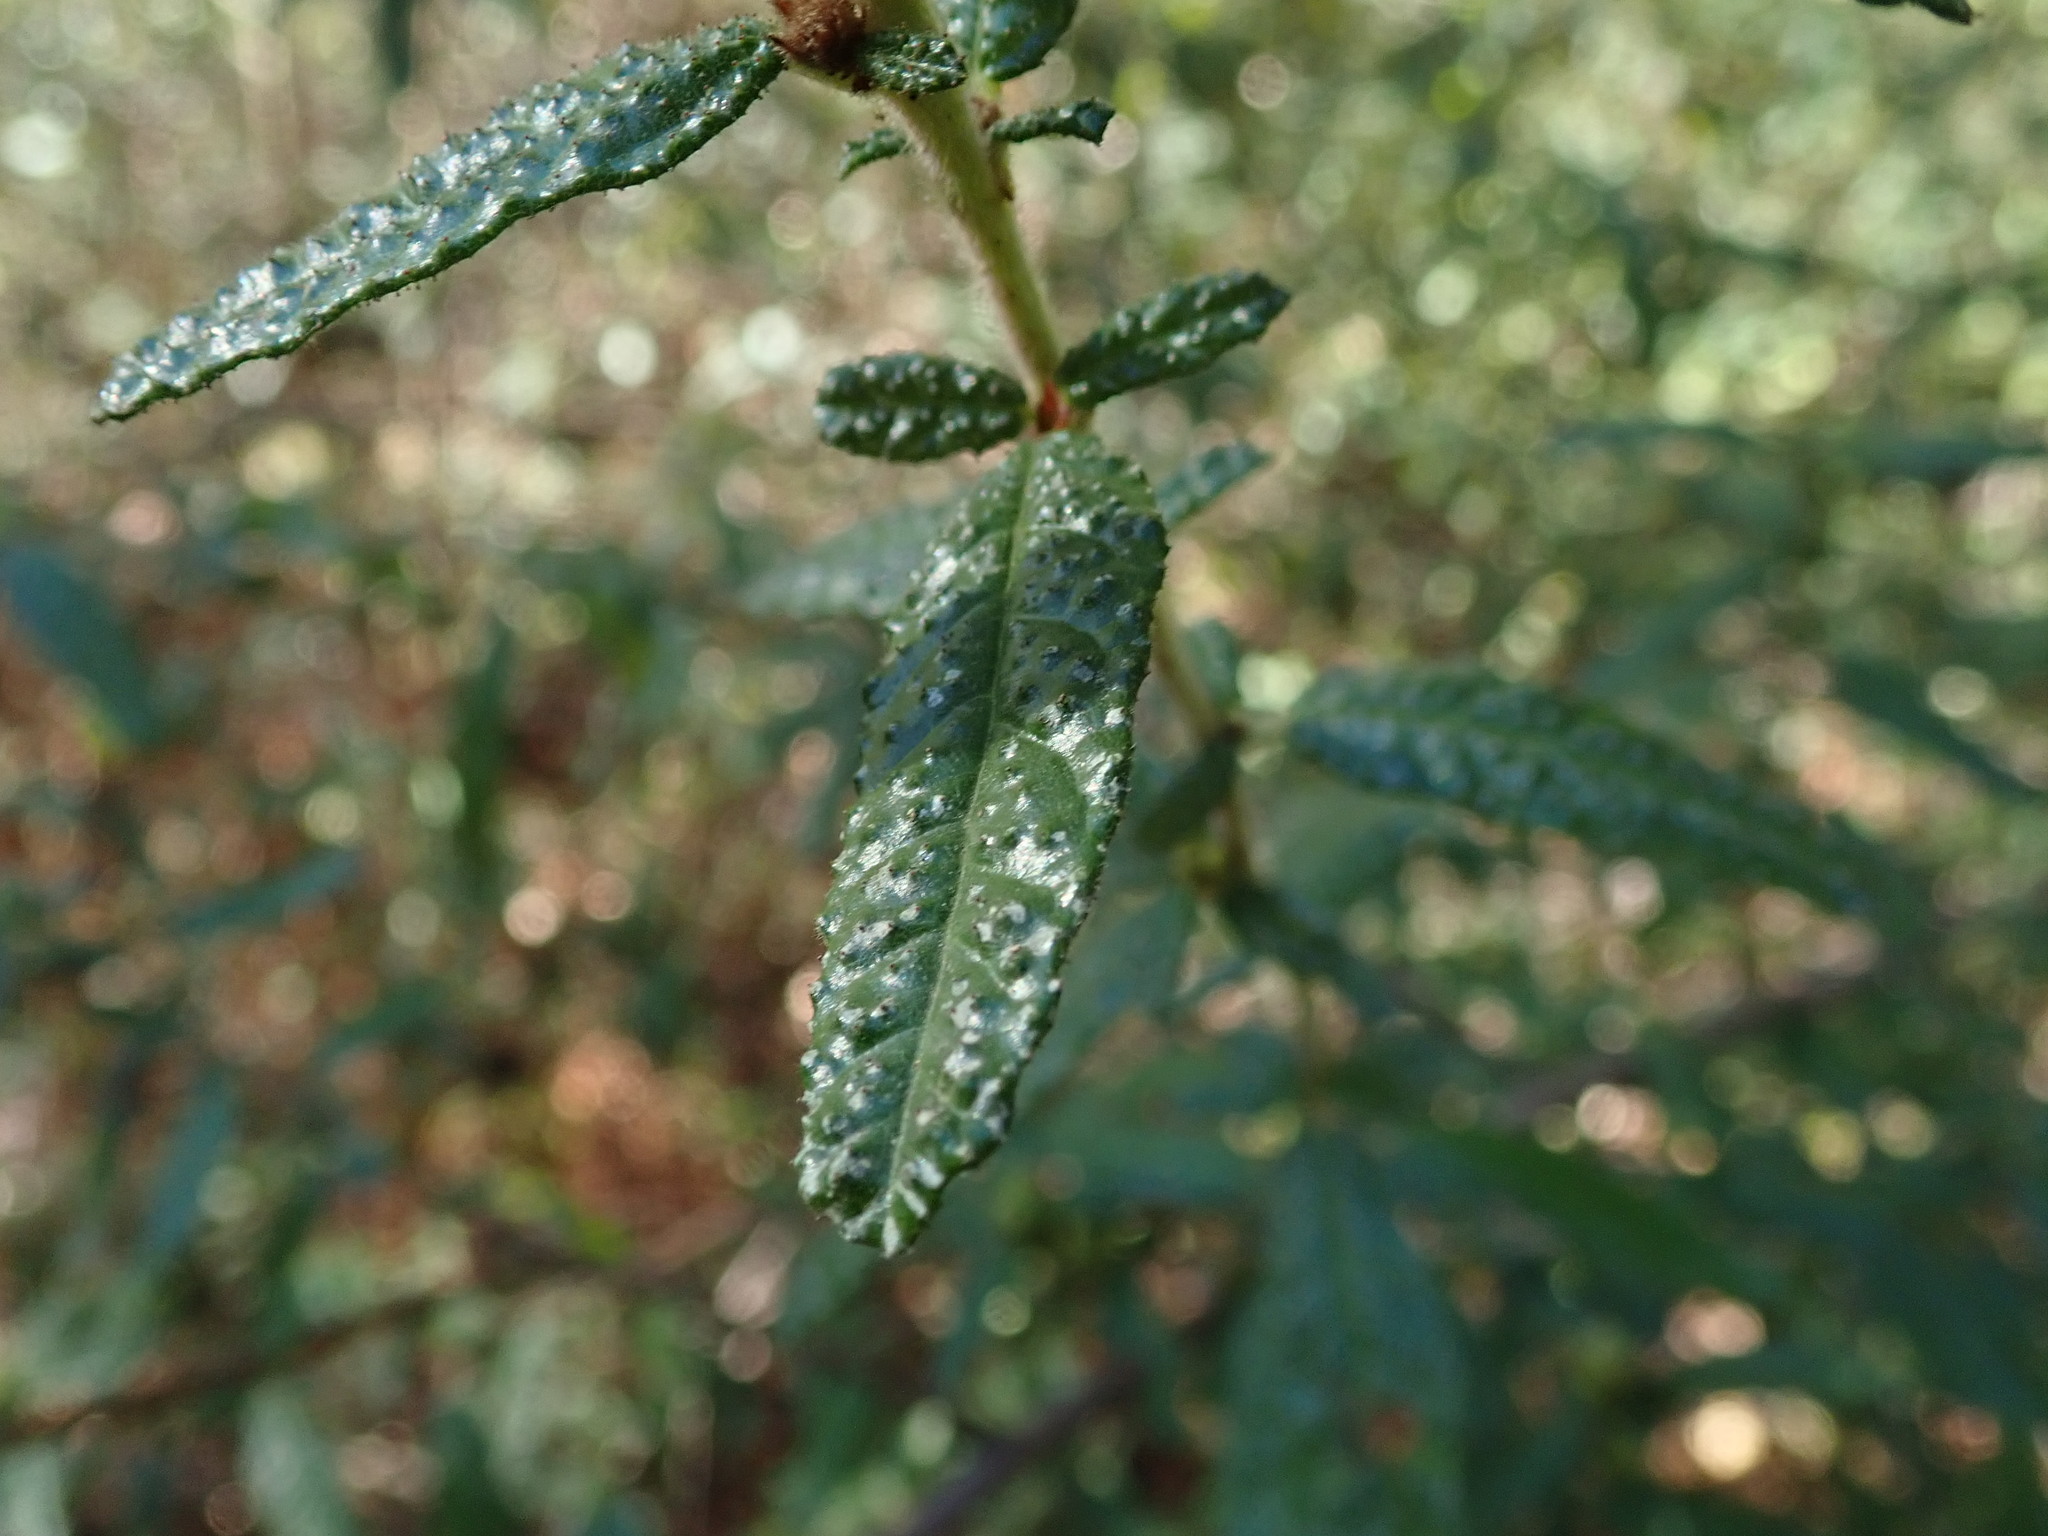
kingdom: Plantae
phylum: Tracheophyta
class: Magnoliopsida
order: Rosales
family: Rhamnaceae
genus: Ceanothus
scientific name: Ceanothus papillosus
